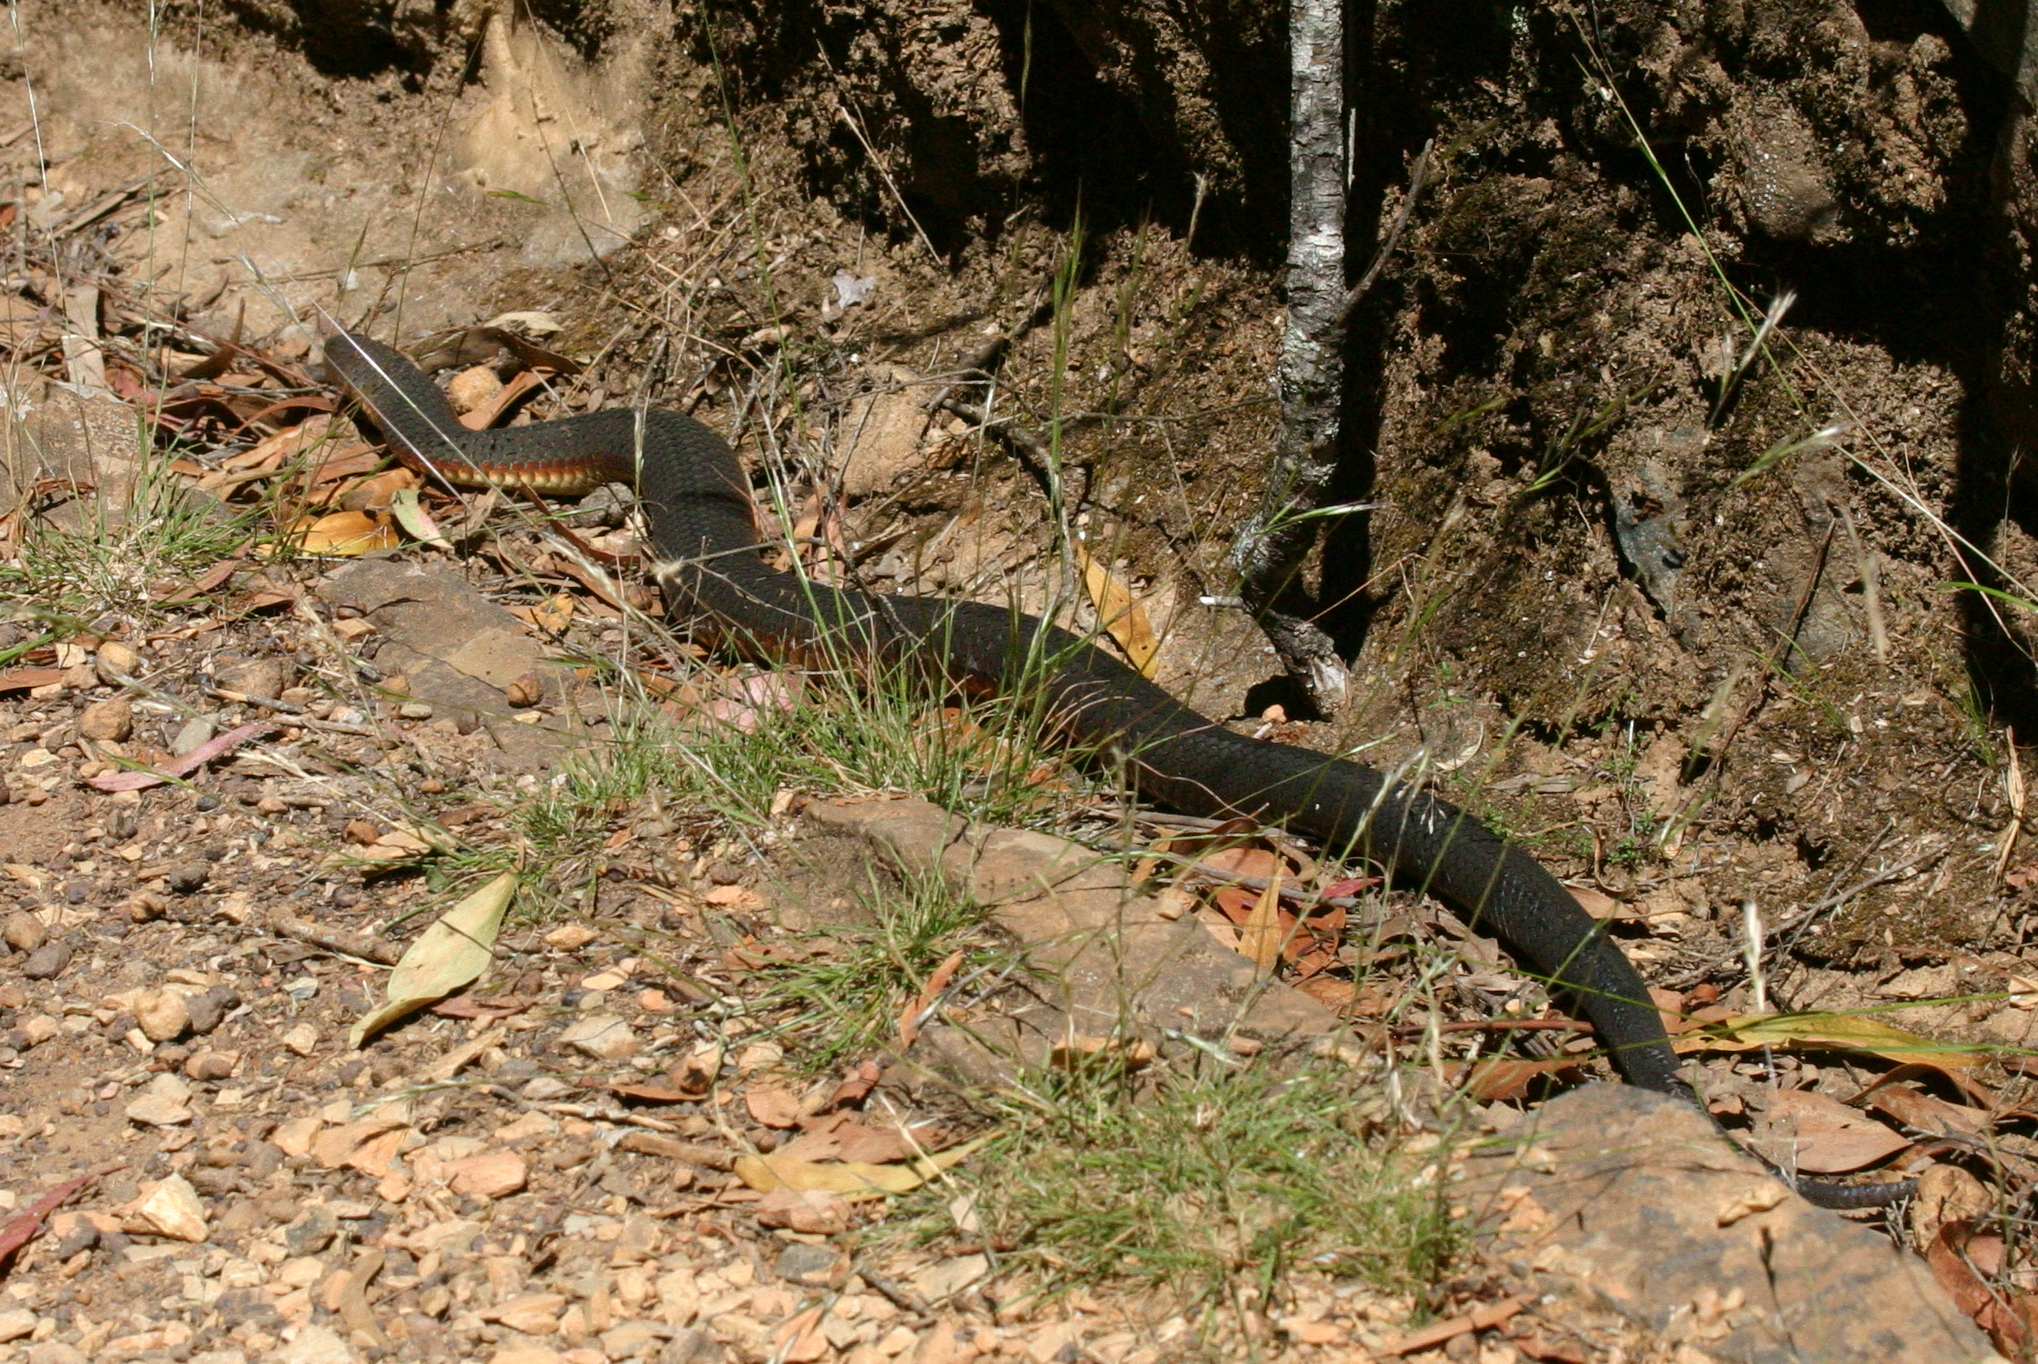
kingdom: Animalia
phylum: Chordata
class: Squamata
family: Elapidae
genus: Austrelaps
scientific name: Austrelaps superbus
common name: Copperhead snake
